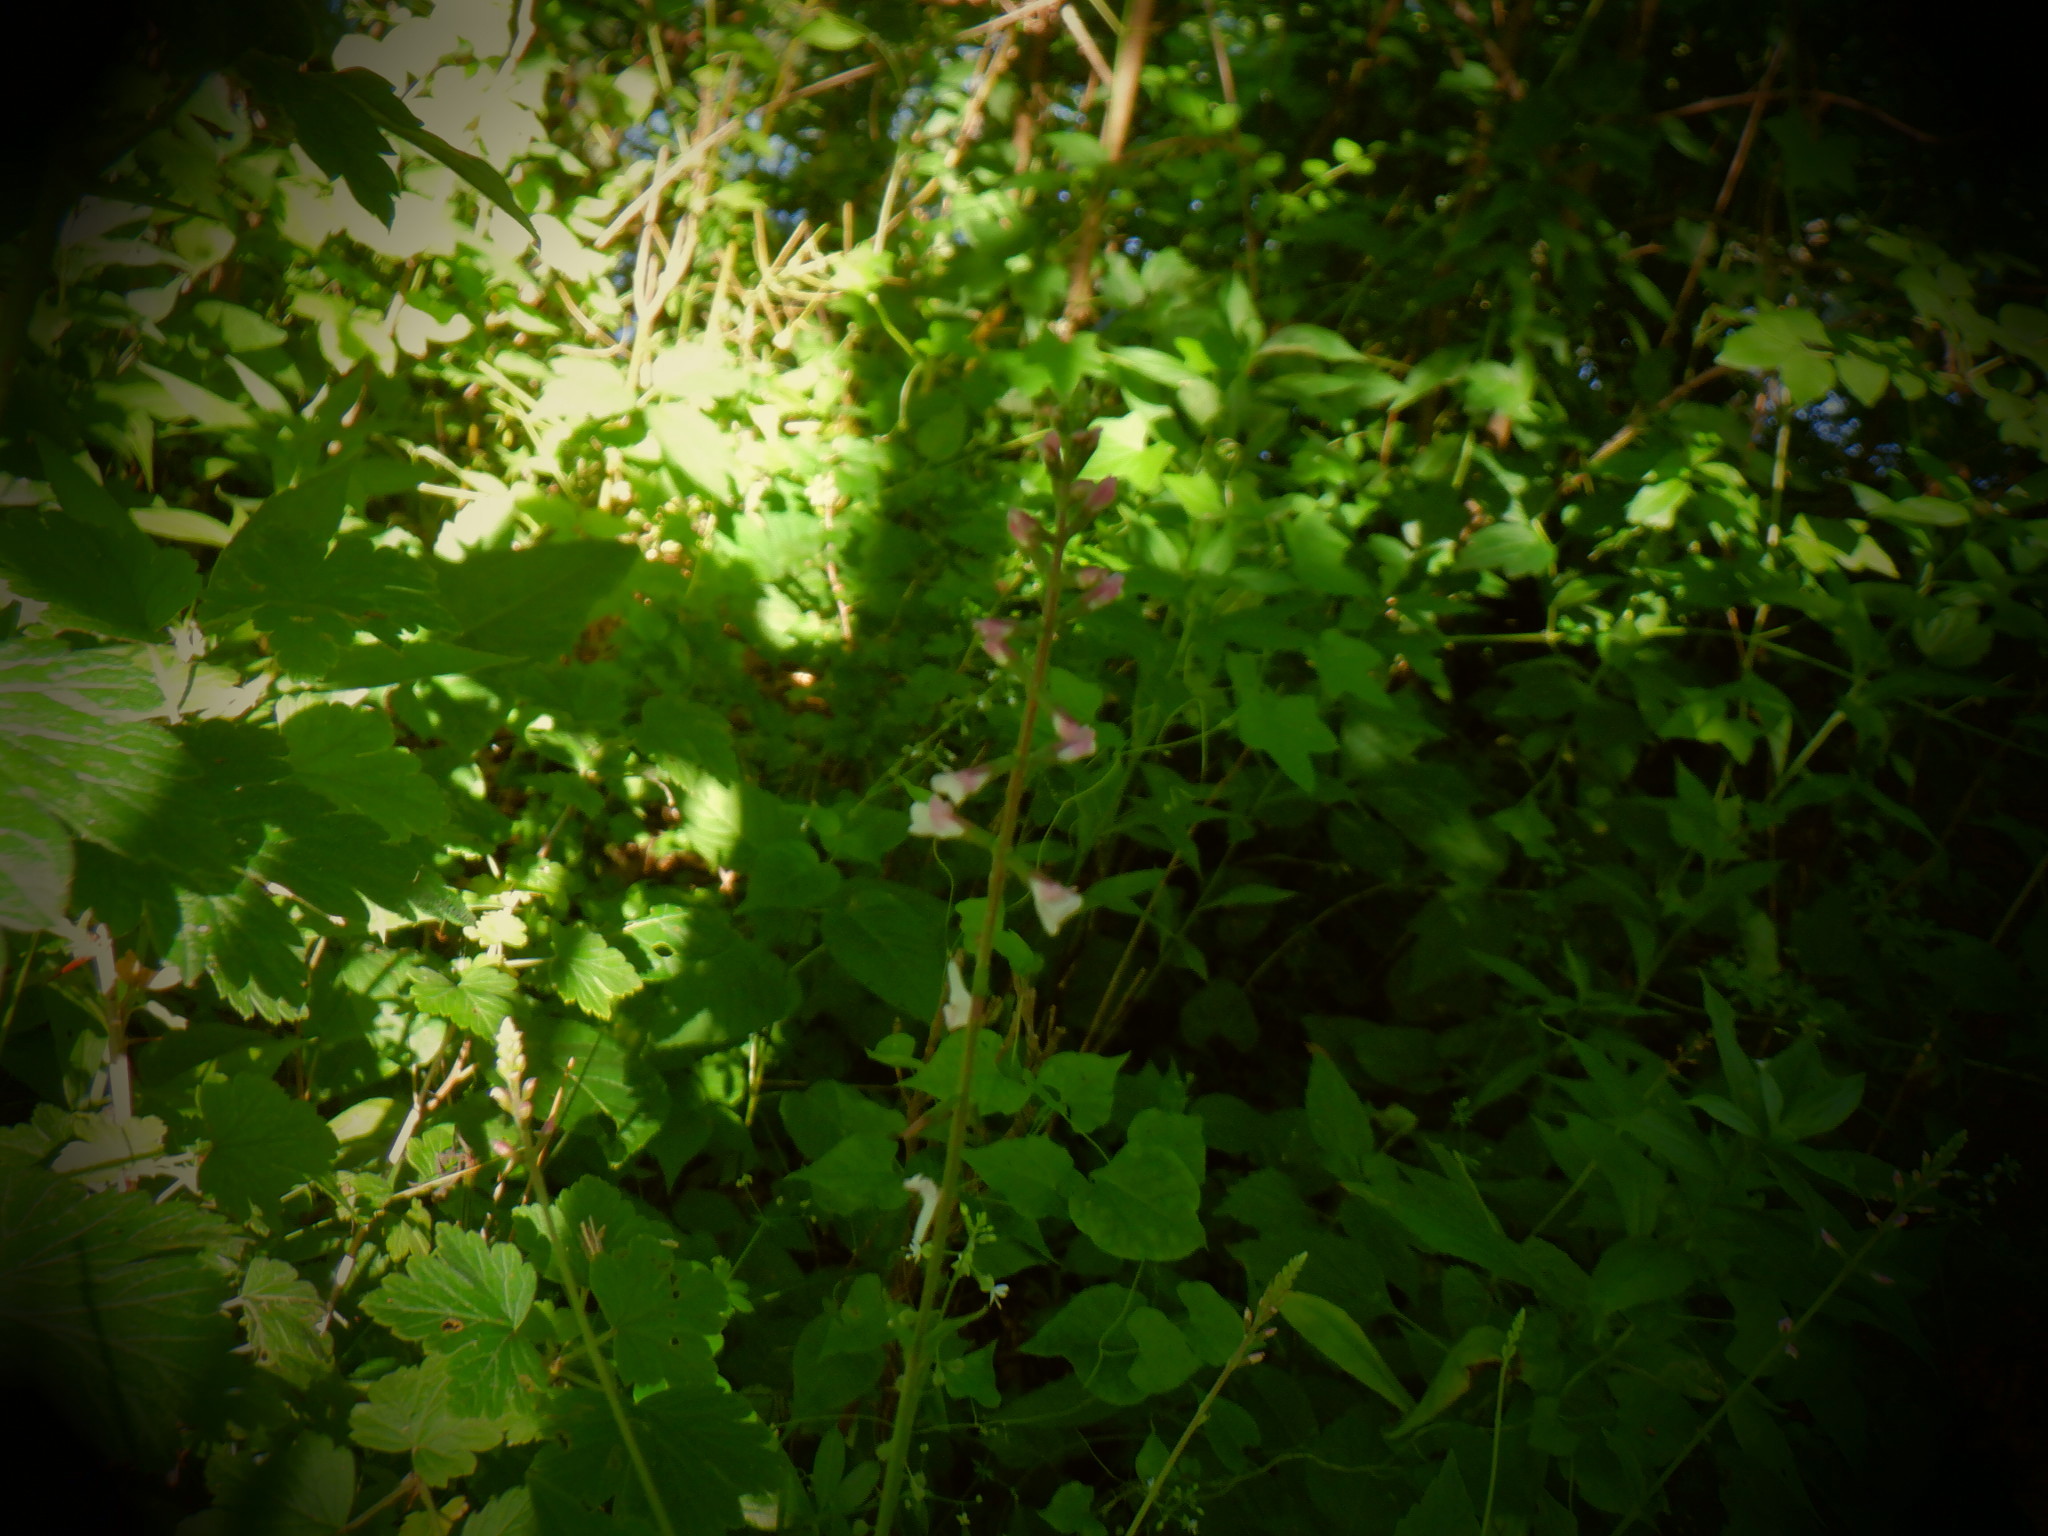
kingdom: Plantae
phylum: Tracheophyta
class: Magnoliopsida
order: Lamiales
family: Phrymaceae
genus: Phryma
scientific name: Phryma leptostachya
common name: American lopseed
